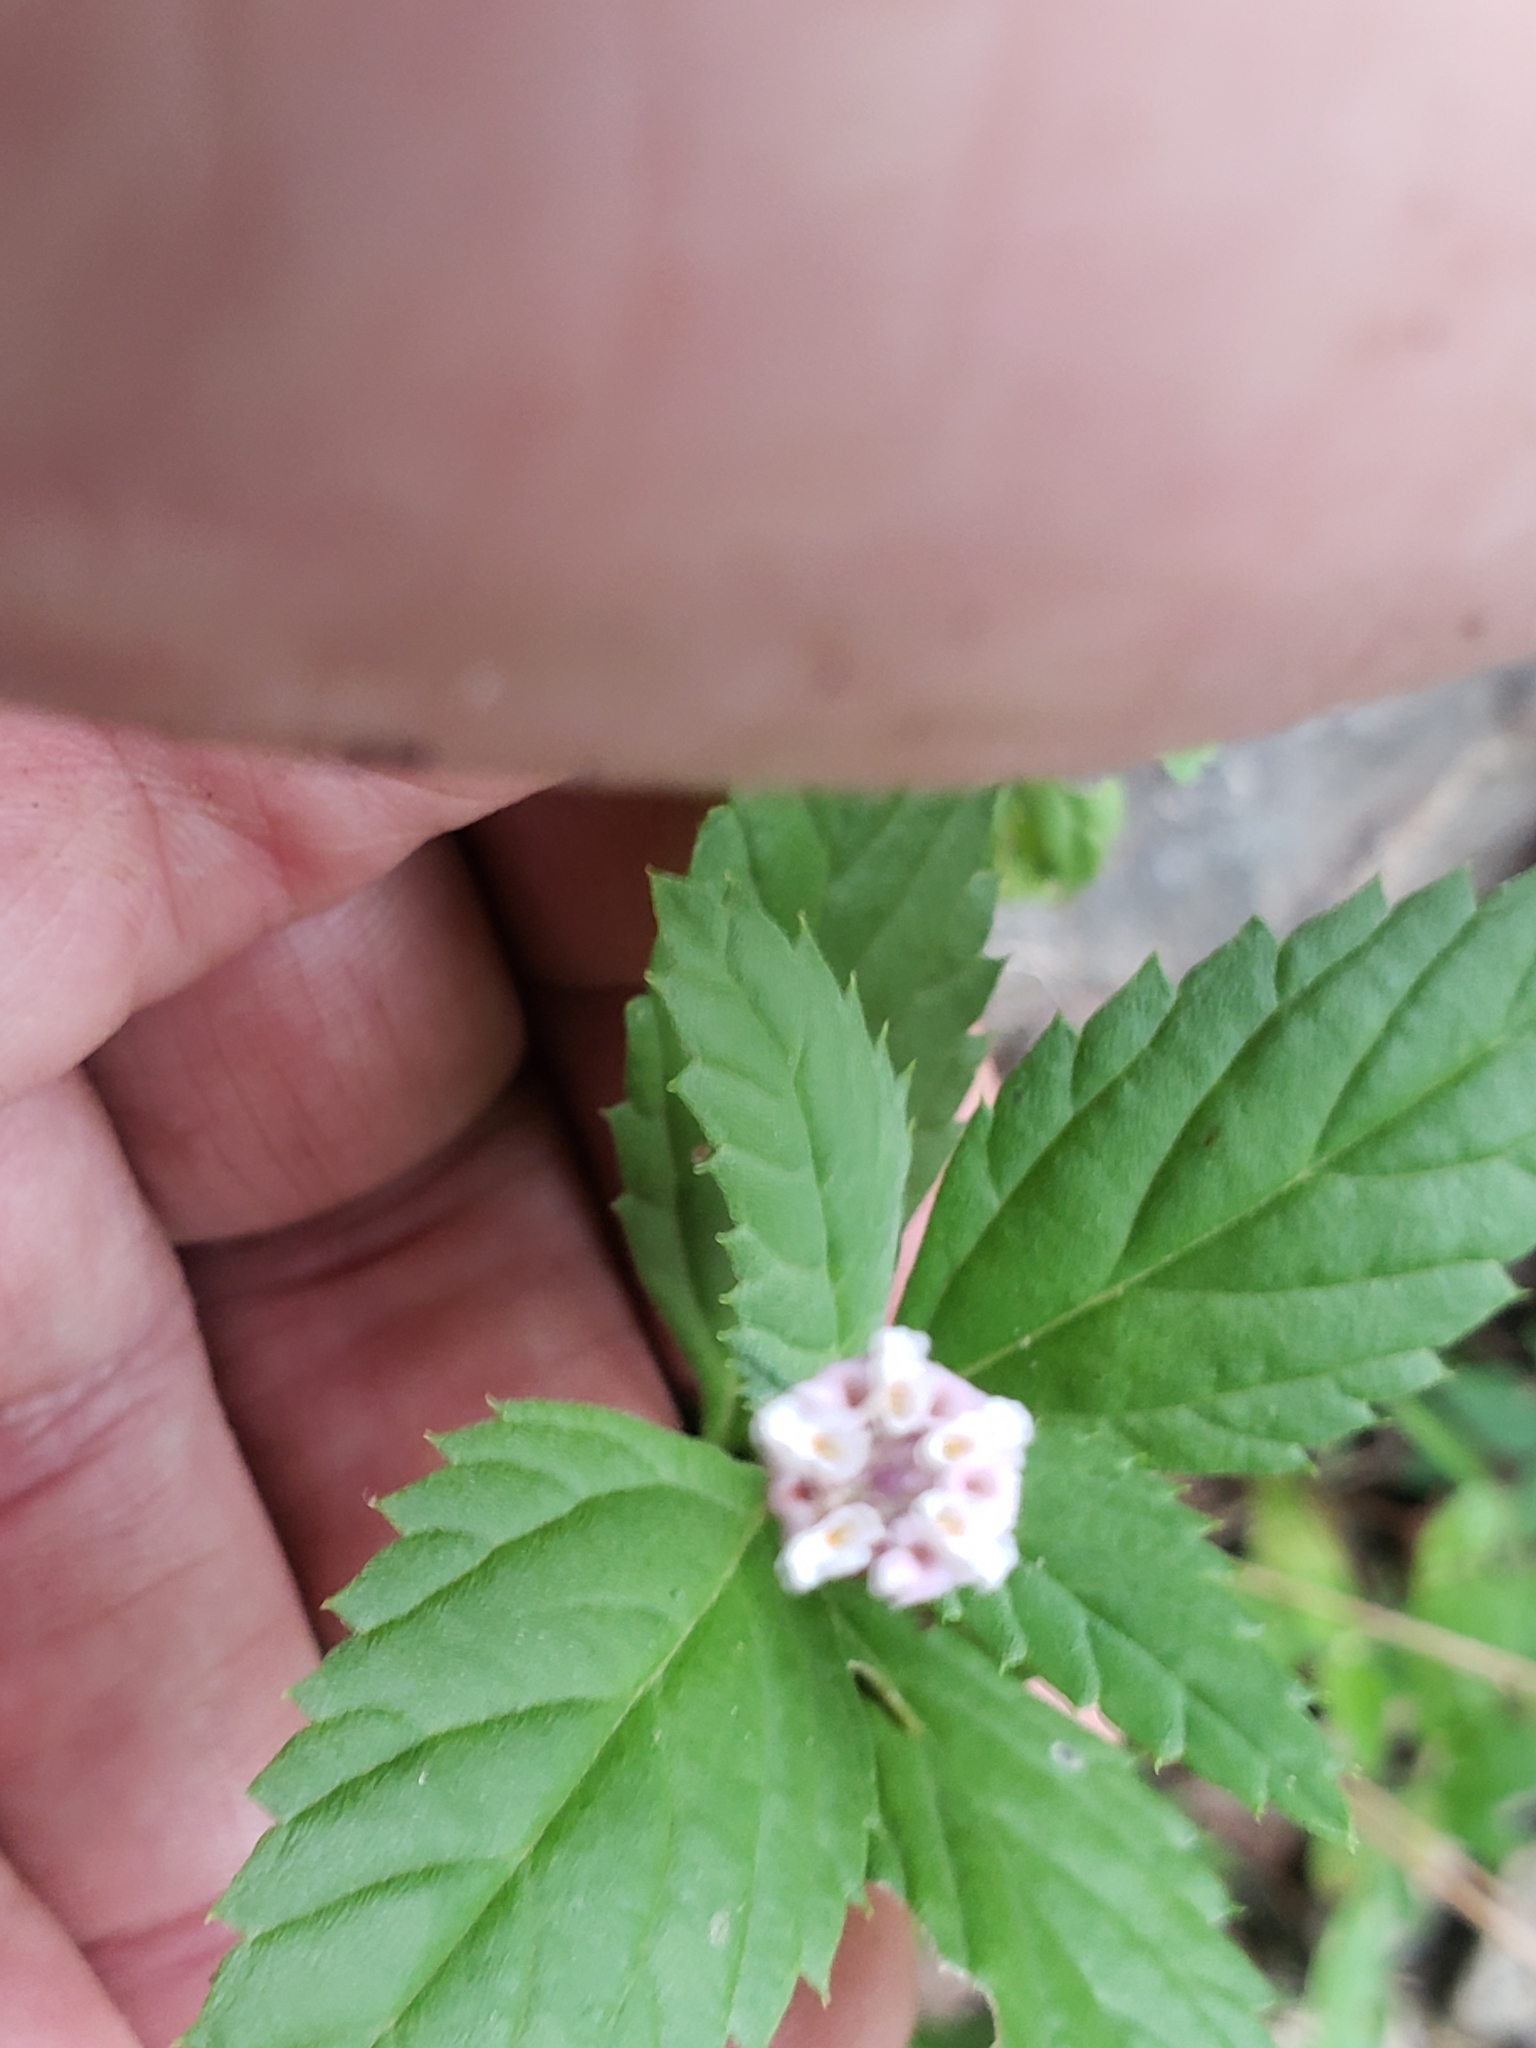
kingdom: Plantae
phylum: Tracheophyta
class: Magnoliopsida
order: Lamiales
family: Verbenaceae
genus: Phyla
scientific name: Phyla lanceolata
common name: Northern fogfruit
